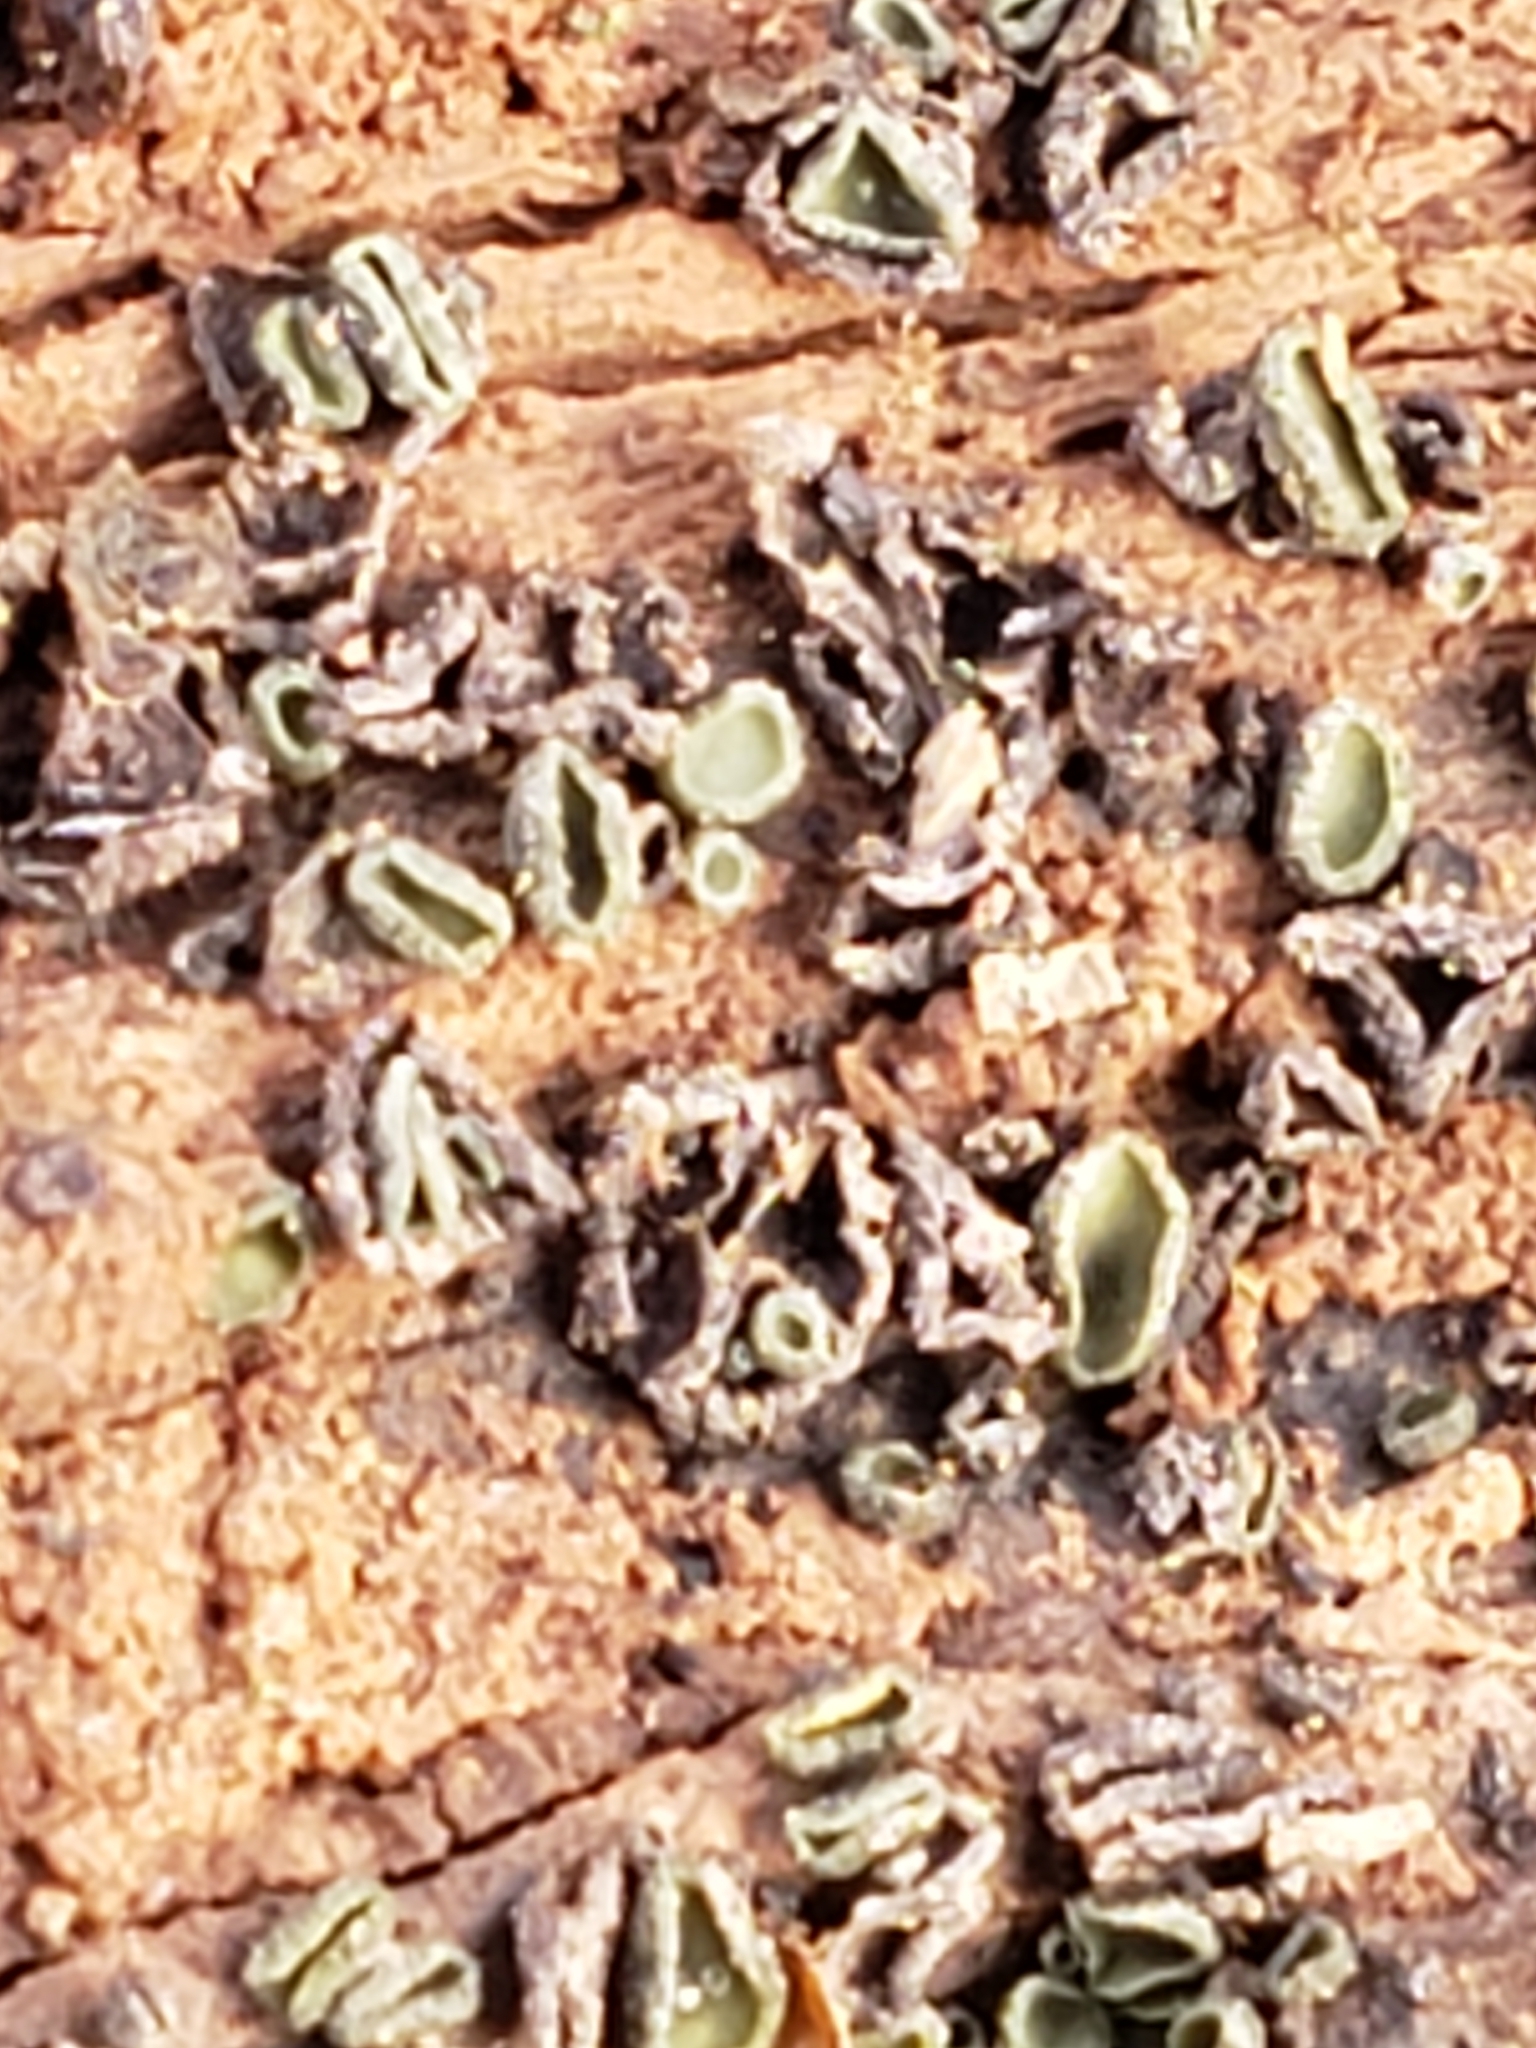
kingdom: Fungi
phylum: Ascomycota
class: Leotiomycetes
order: Helotiales
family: Chlorospleniaceae
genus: Chlorosplenium
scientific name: Chlorosplenium chlora
